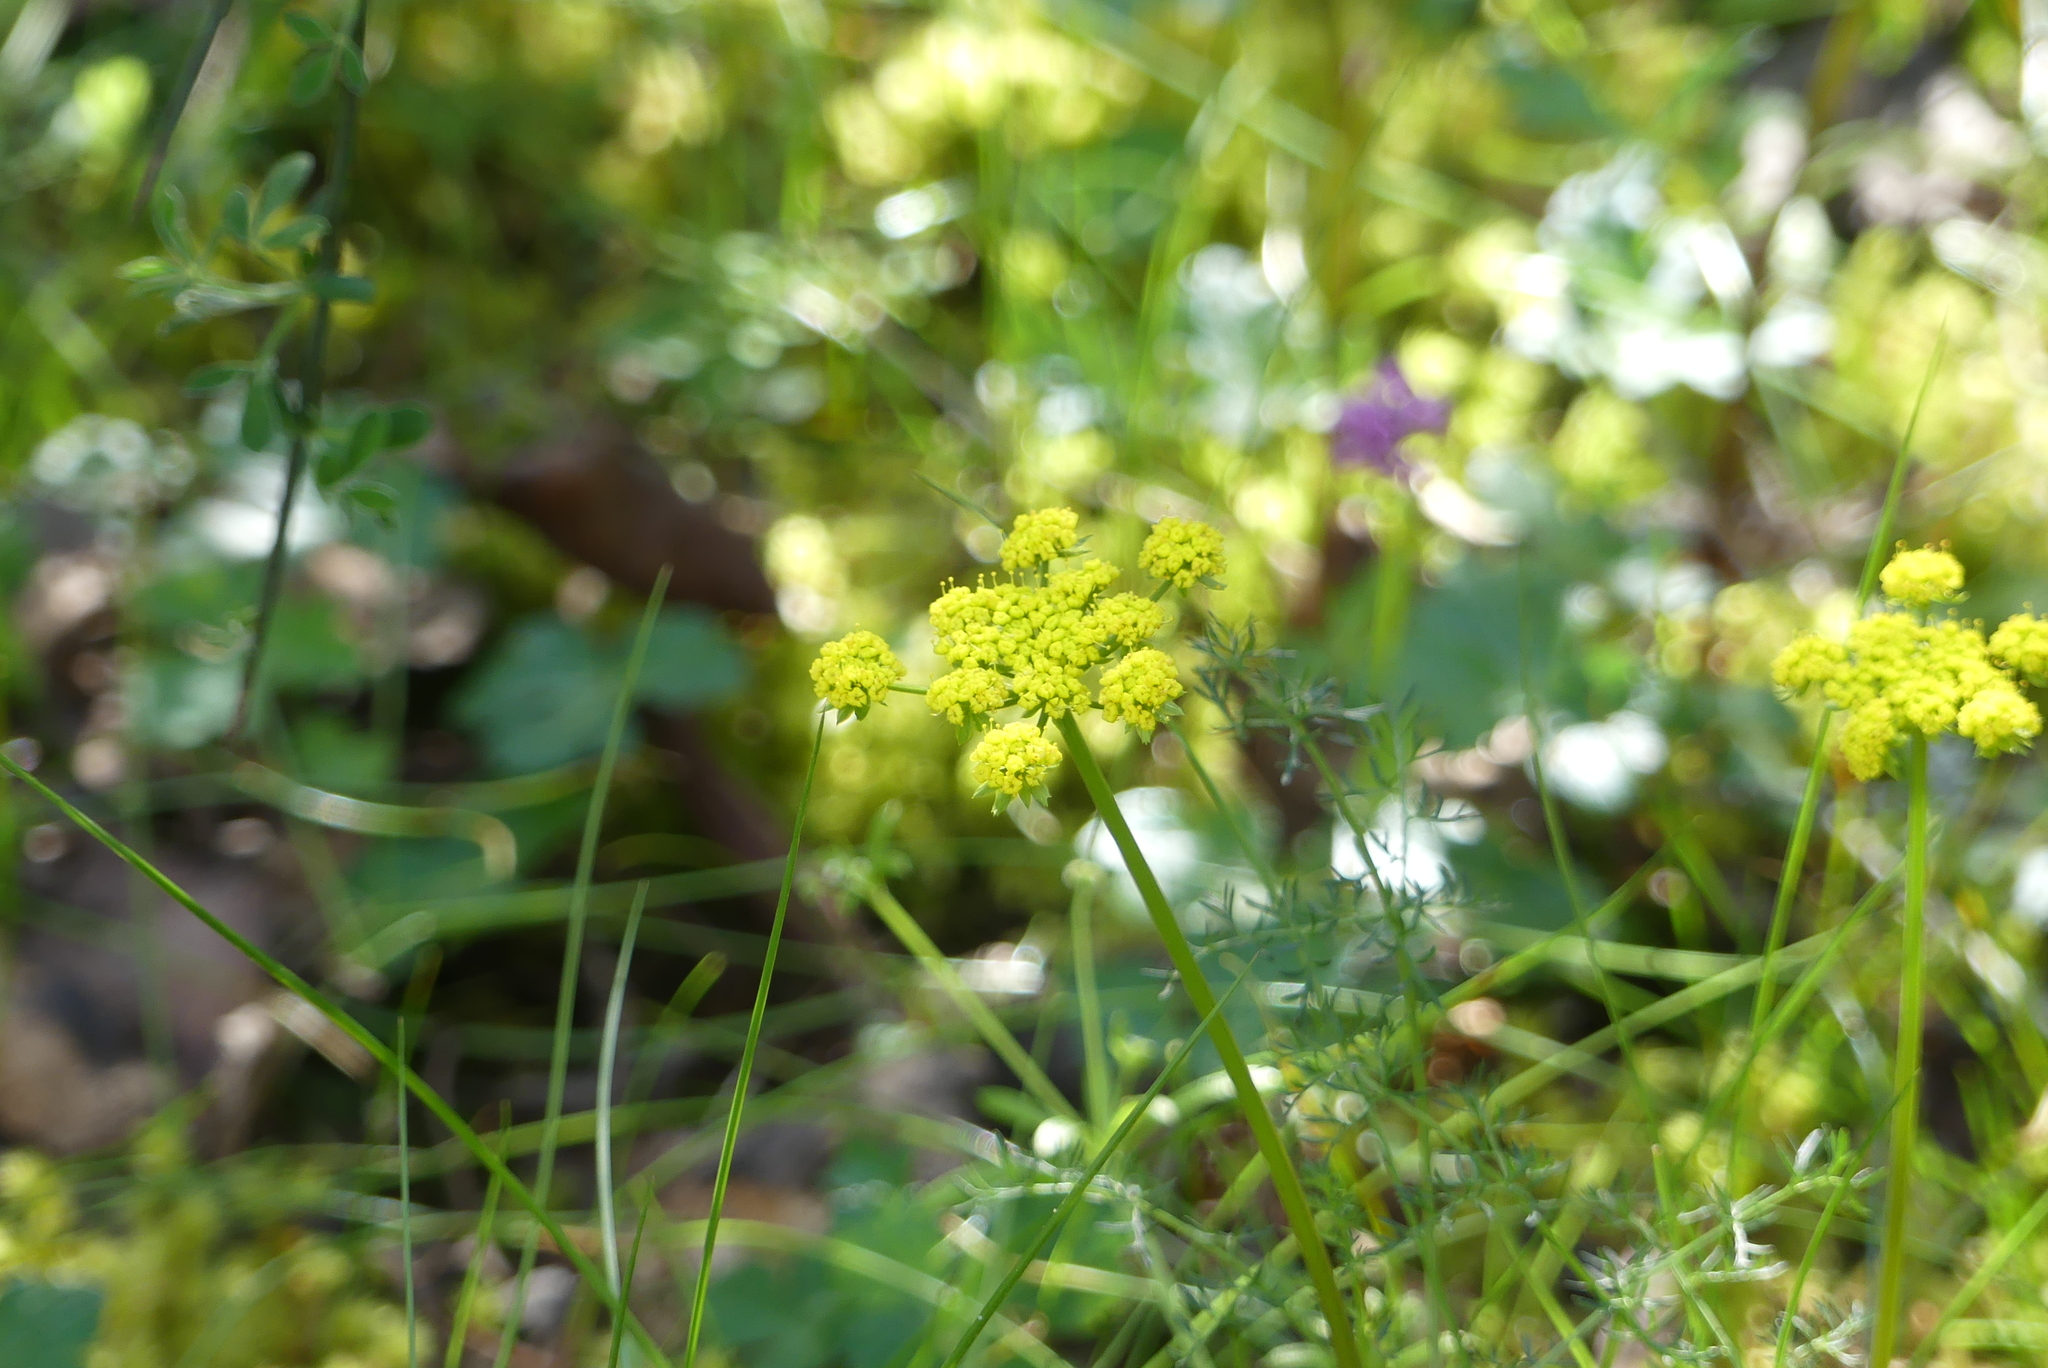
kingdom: Plantae
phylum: Tracheophyta
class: Magnoliopsida
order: Apiales
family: Apiaceae
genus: Lomatium
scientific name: Lomatium utriculatum
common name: Fine-leaf desert-parsley
